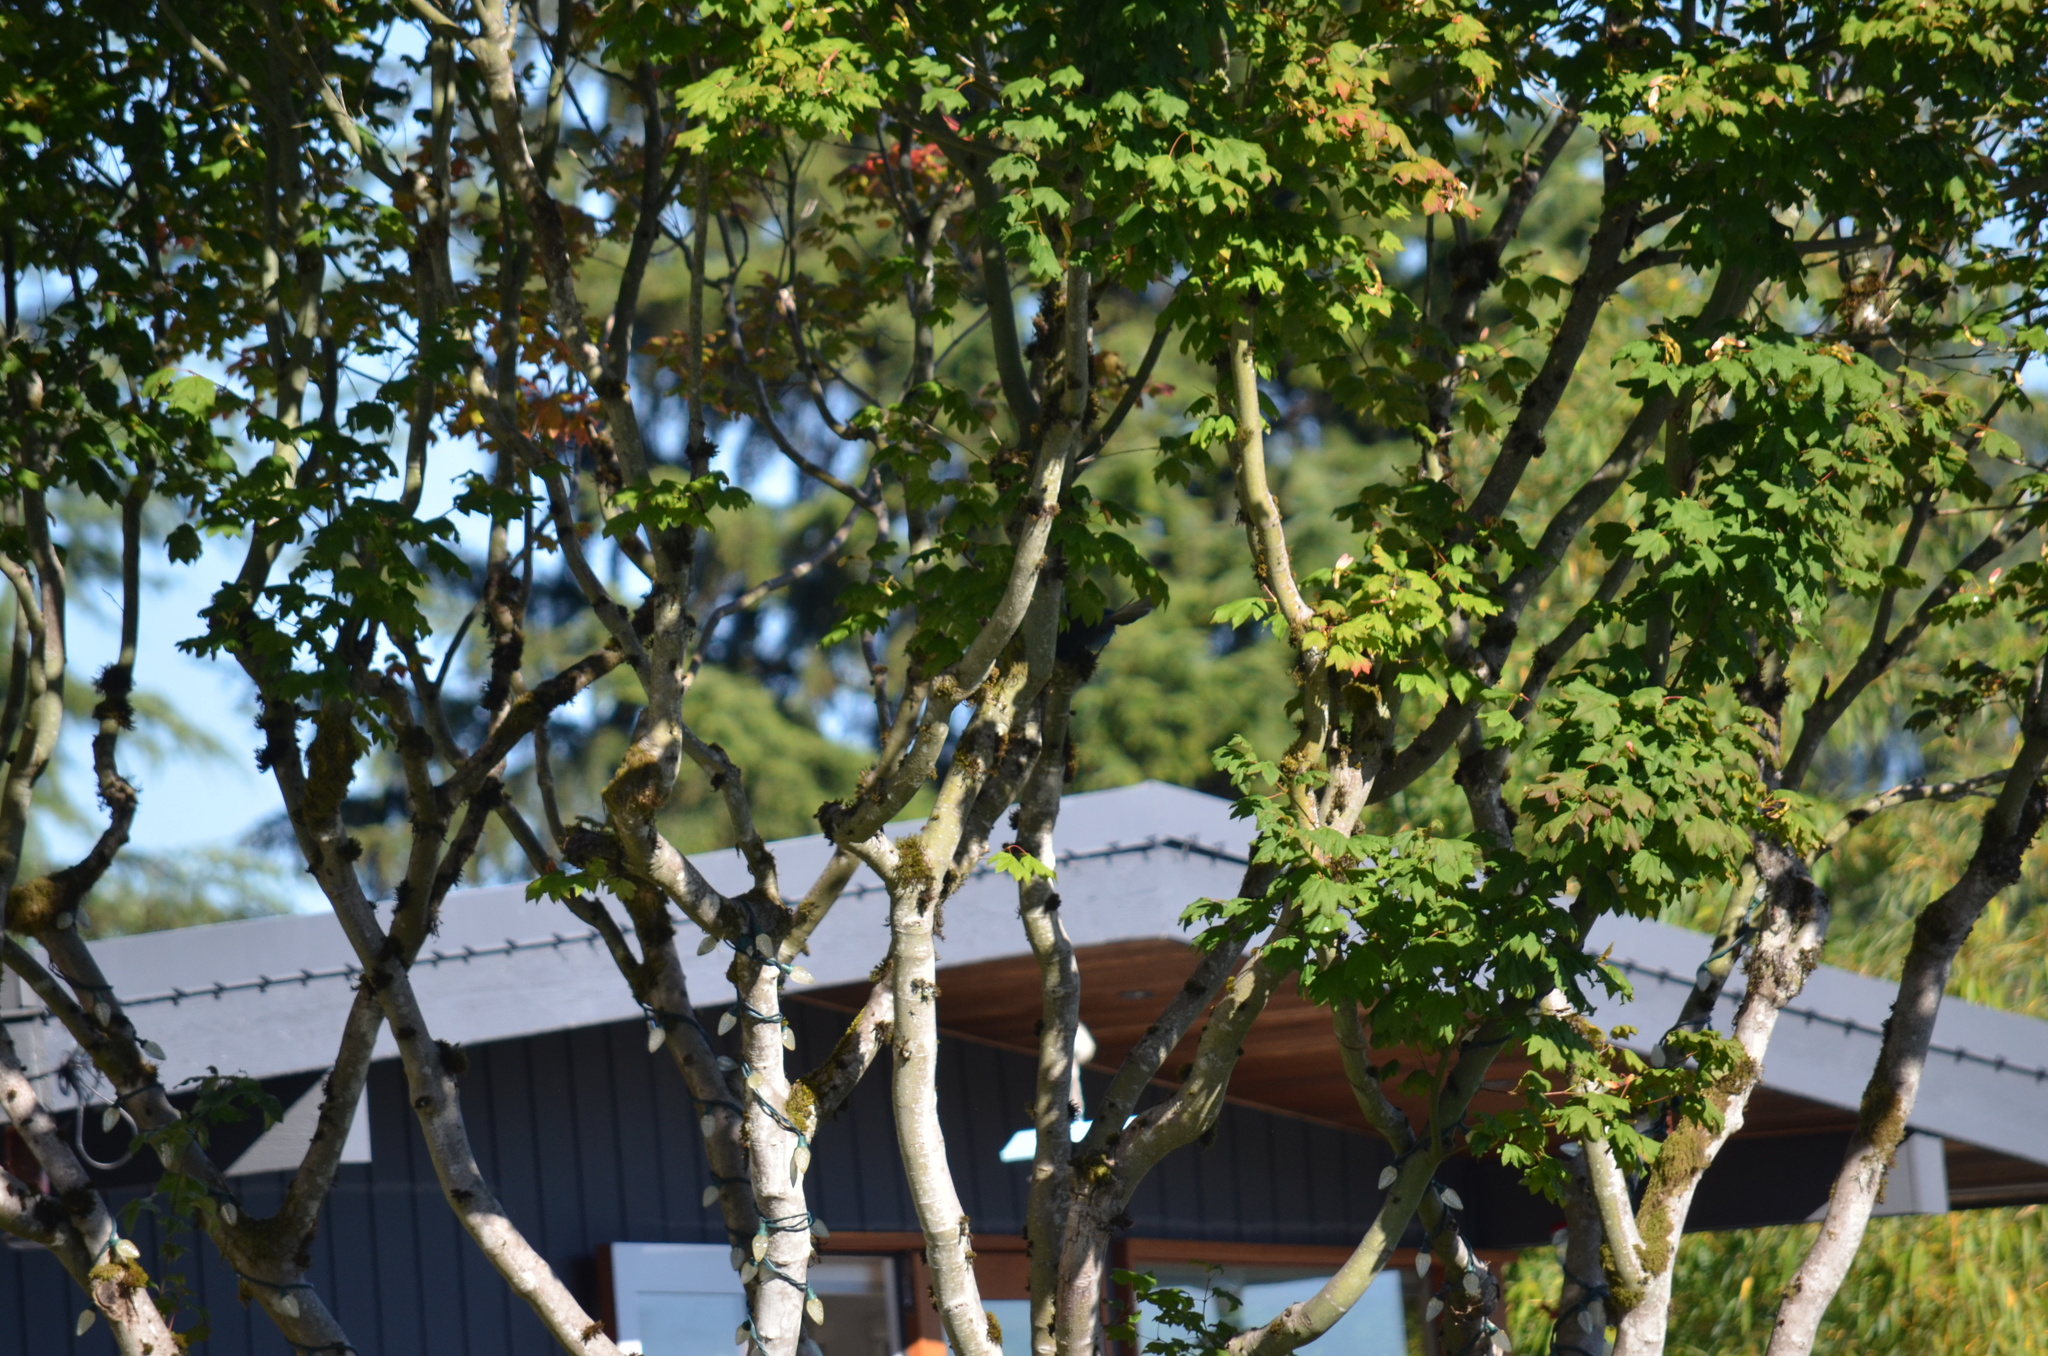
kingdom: Animalia
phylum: Chordata
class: Aves
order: Passeriformes
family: Corvidae
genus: Cyanocitta
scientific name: Cyanocitta stelleri
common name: Steller's jay
